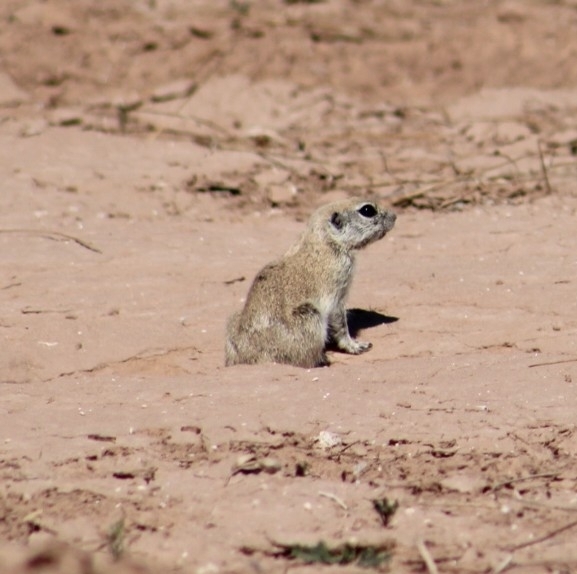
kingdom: Animalia
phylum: Chordata
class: Mammalia
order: Rodentia
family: Sciuridae
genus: Xerospermophilus
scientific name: Xerospermophilus tereticaudus
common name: Round-tailed ground squirrel
